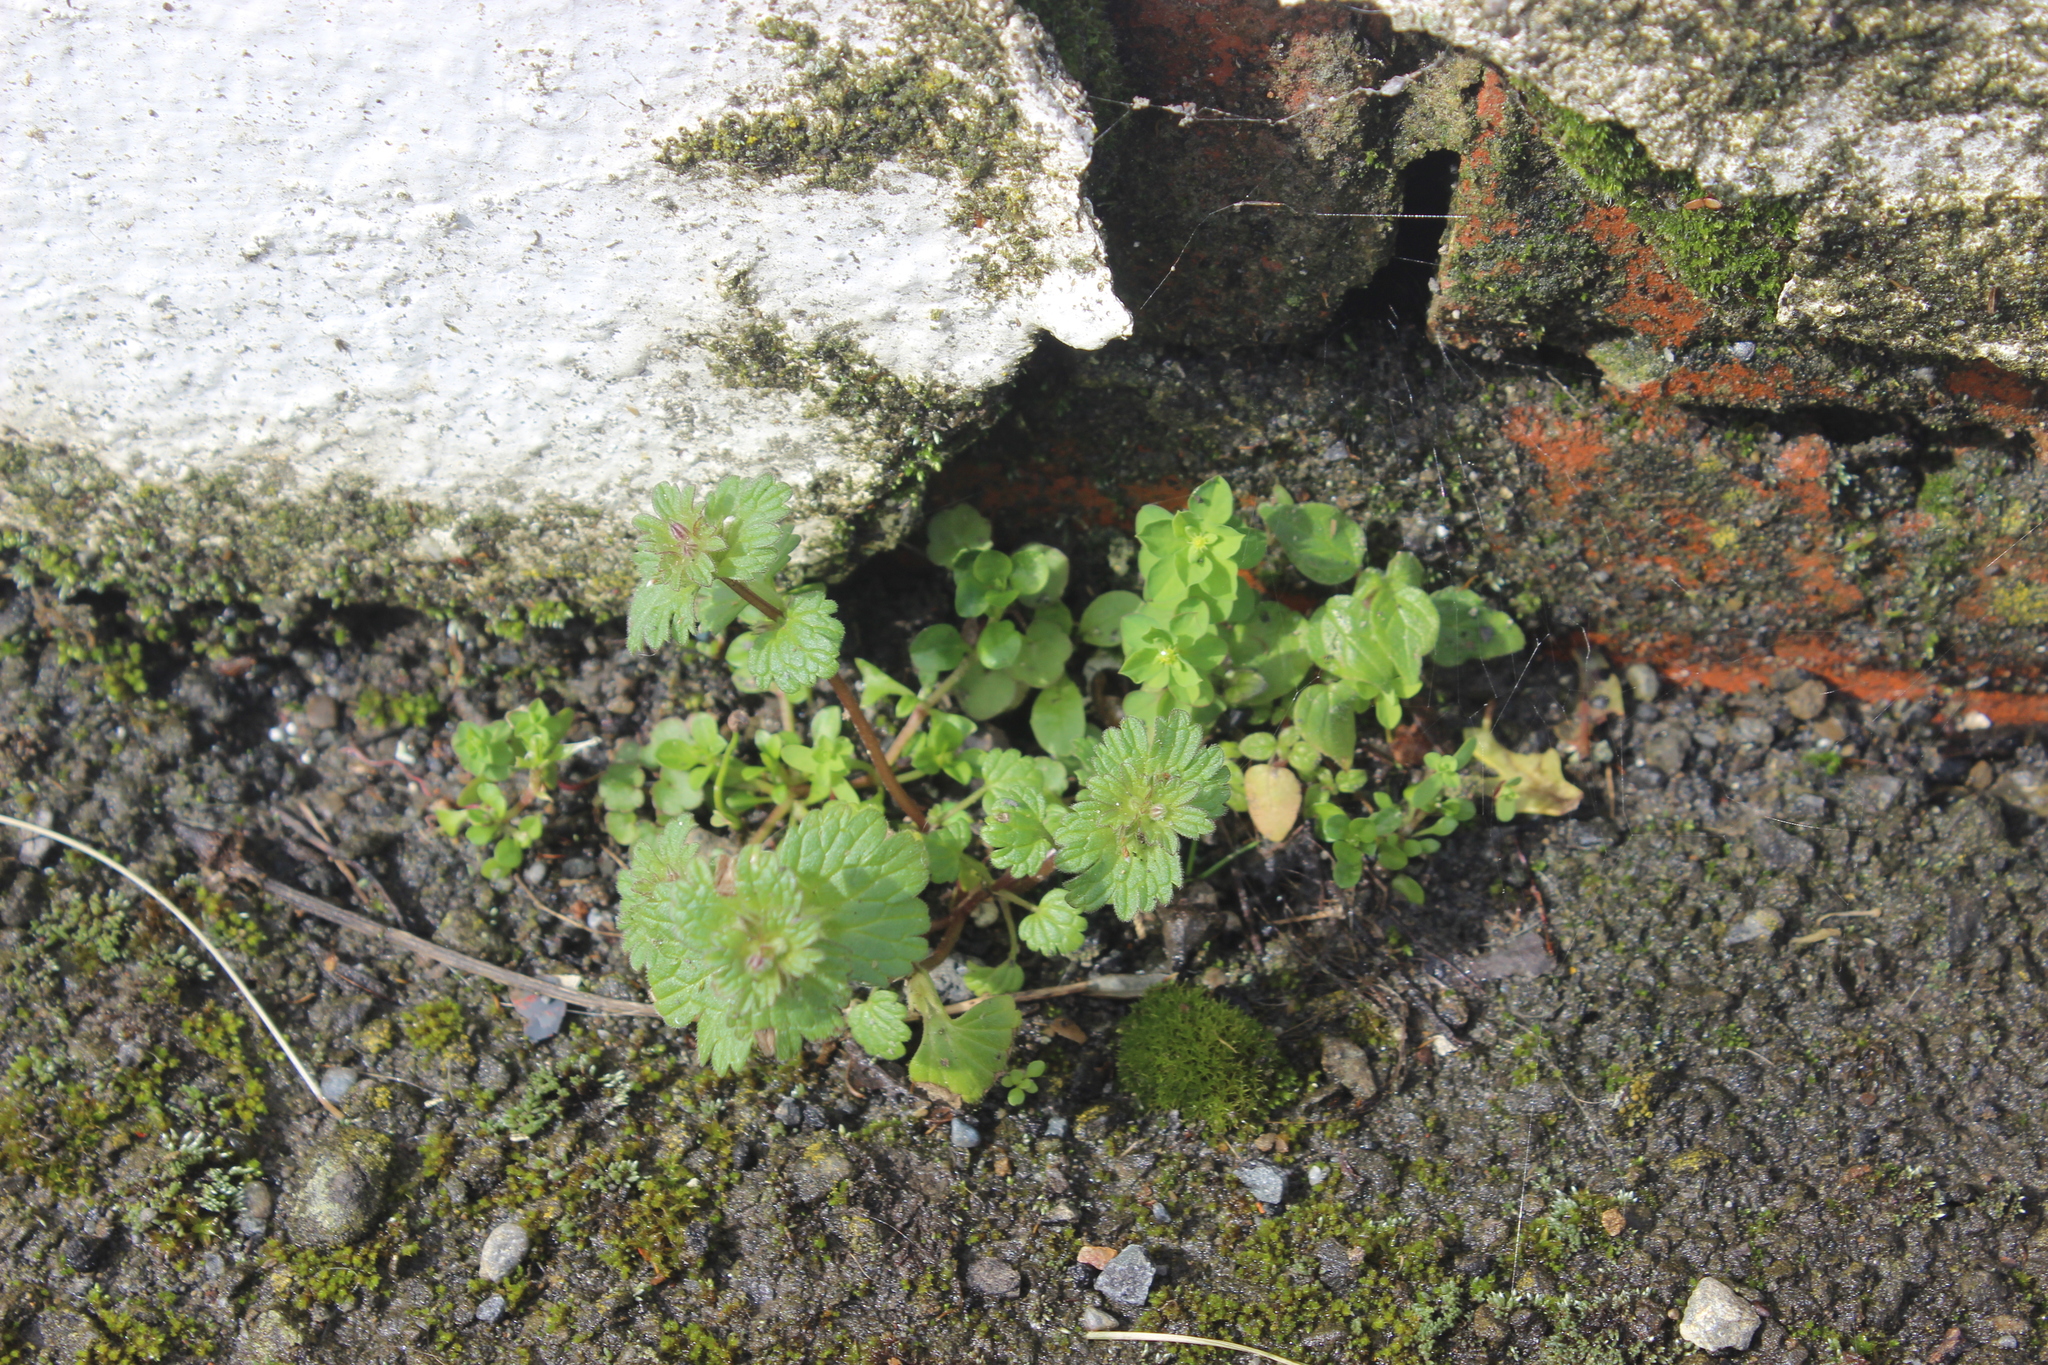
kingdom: Plantae
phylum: Tracheophyta
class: Magnoliopsida
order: Lamiales
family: Lamiaceae
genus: Lamium
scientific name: Lamium amplexicaule
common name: Henbit dead-nettle
